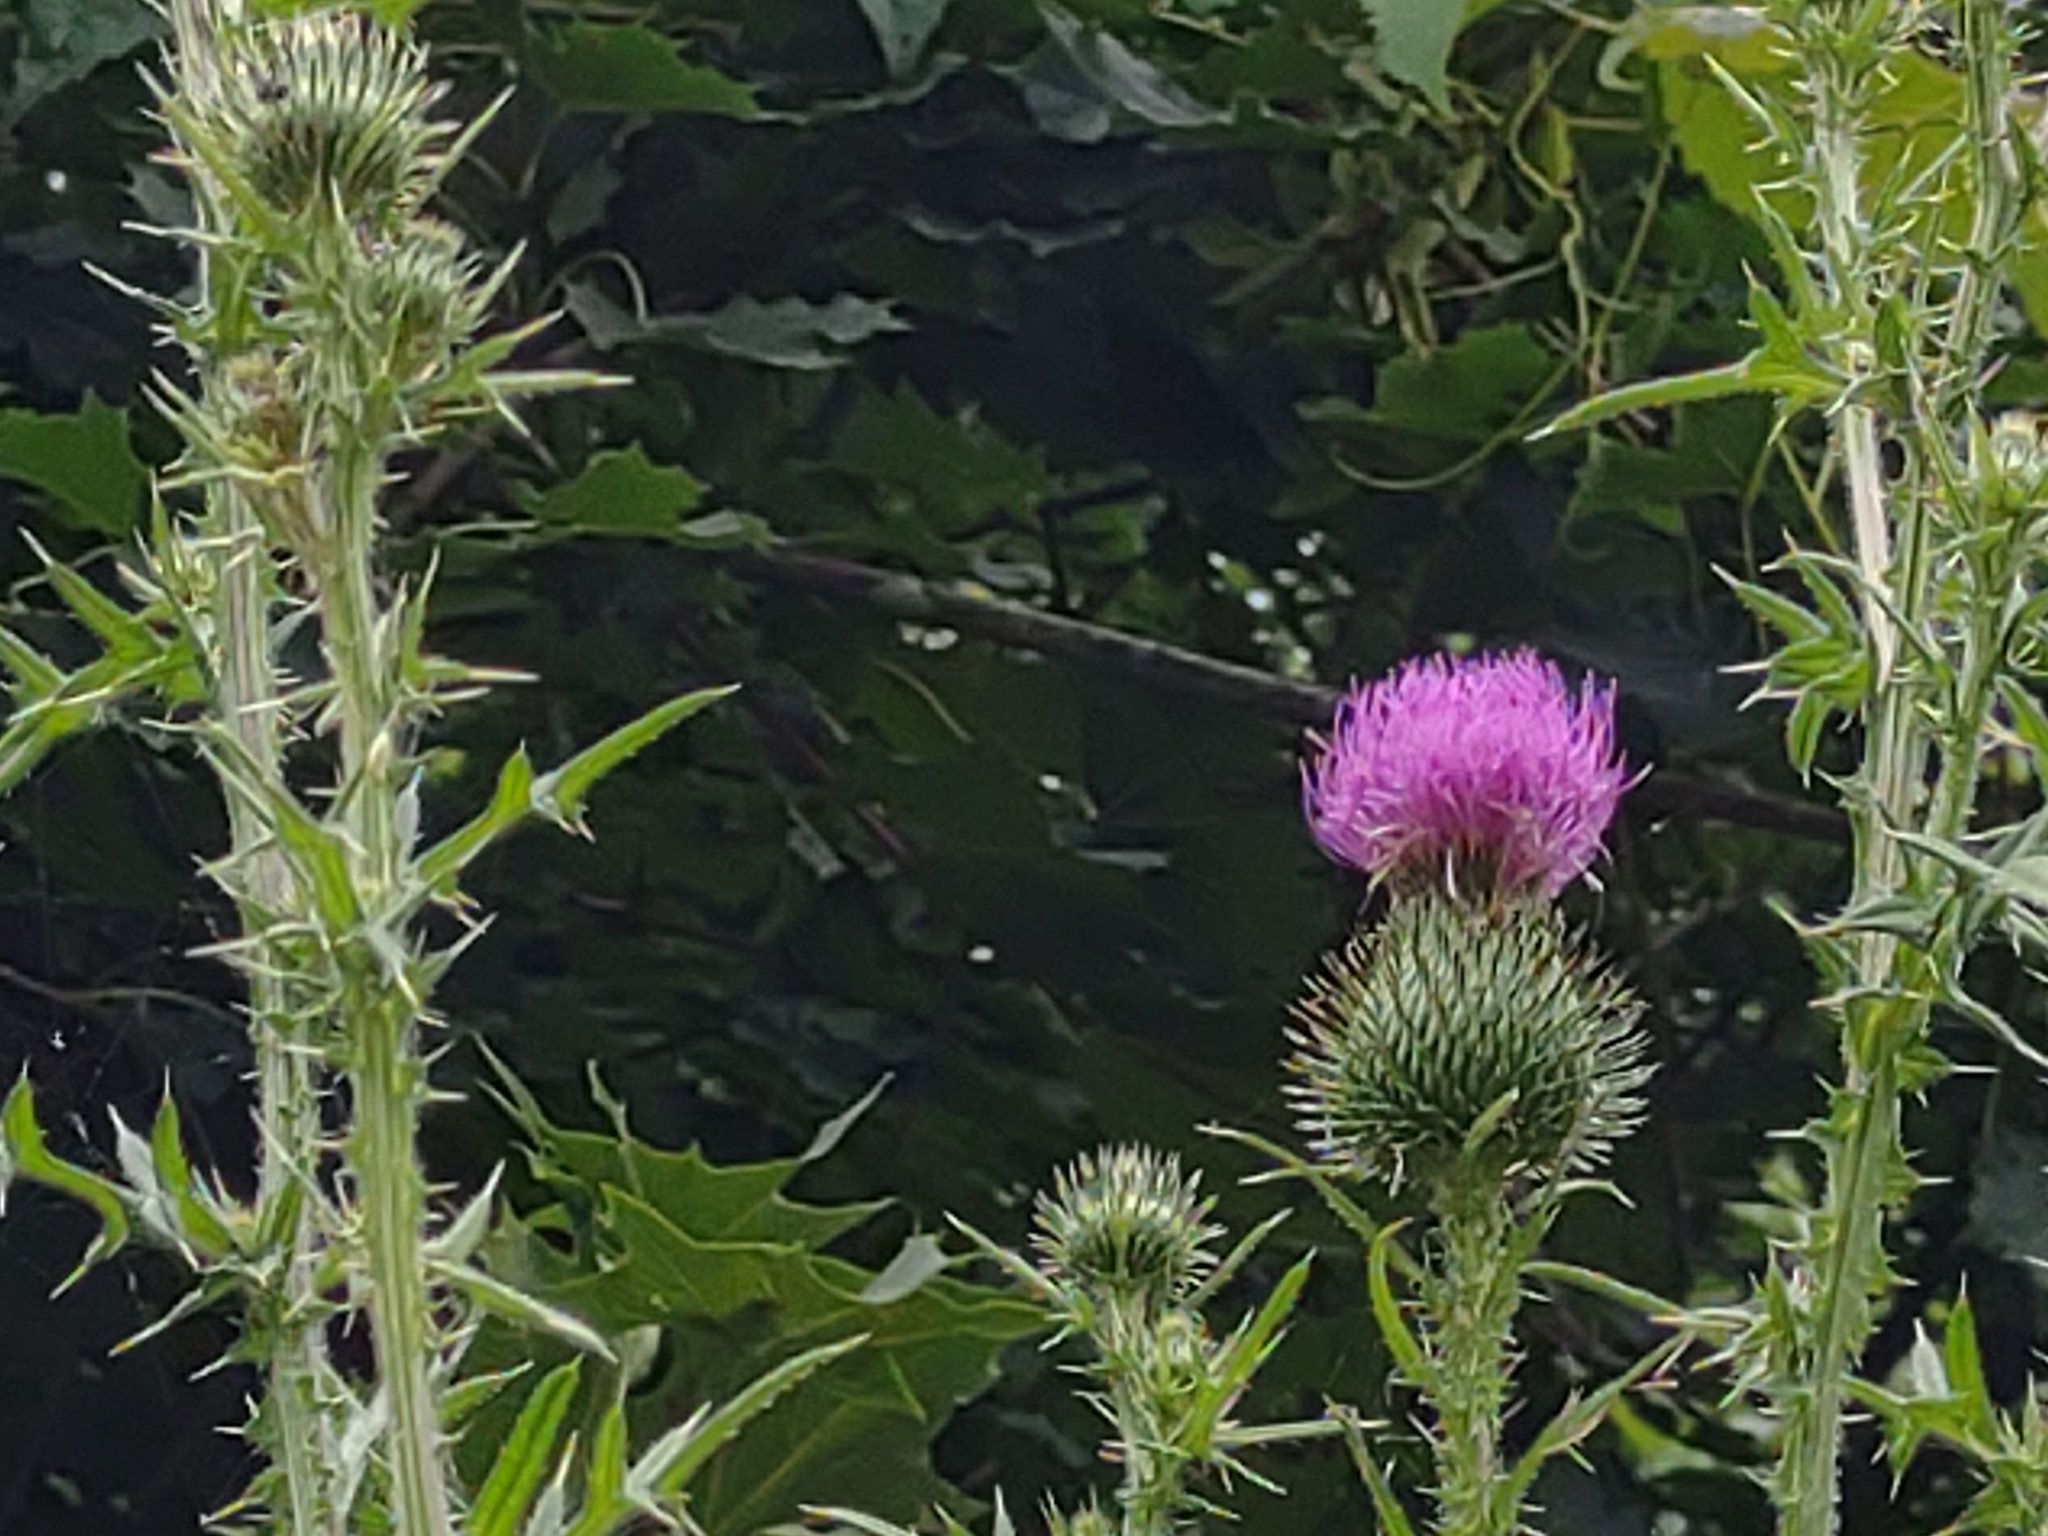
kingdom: Plantae
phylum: Tracheophyta
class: Magnoliopsida
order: Asterales
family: Asteraceae
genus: Cirsium
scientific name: Cirsium vulgare
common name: Bull thistle
